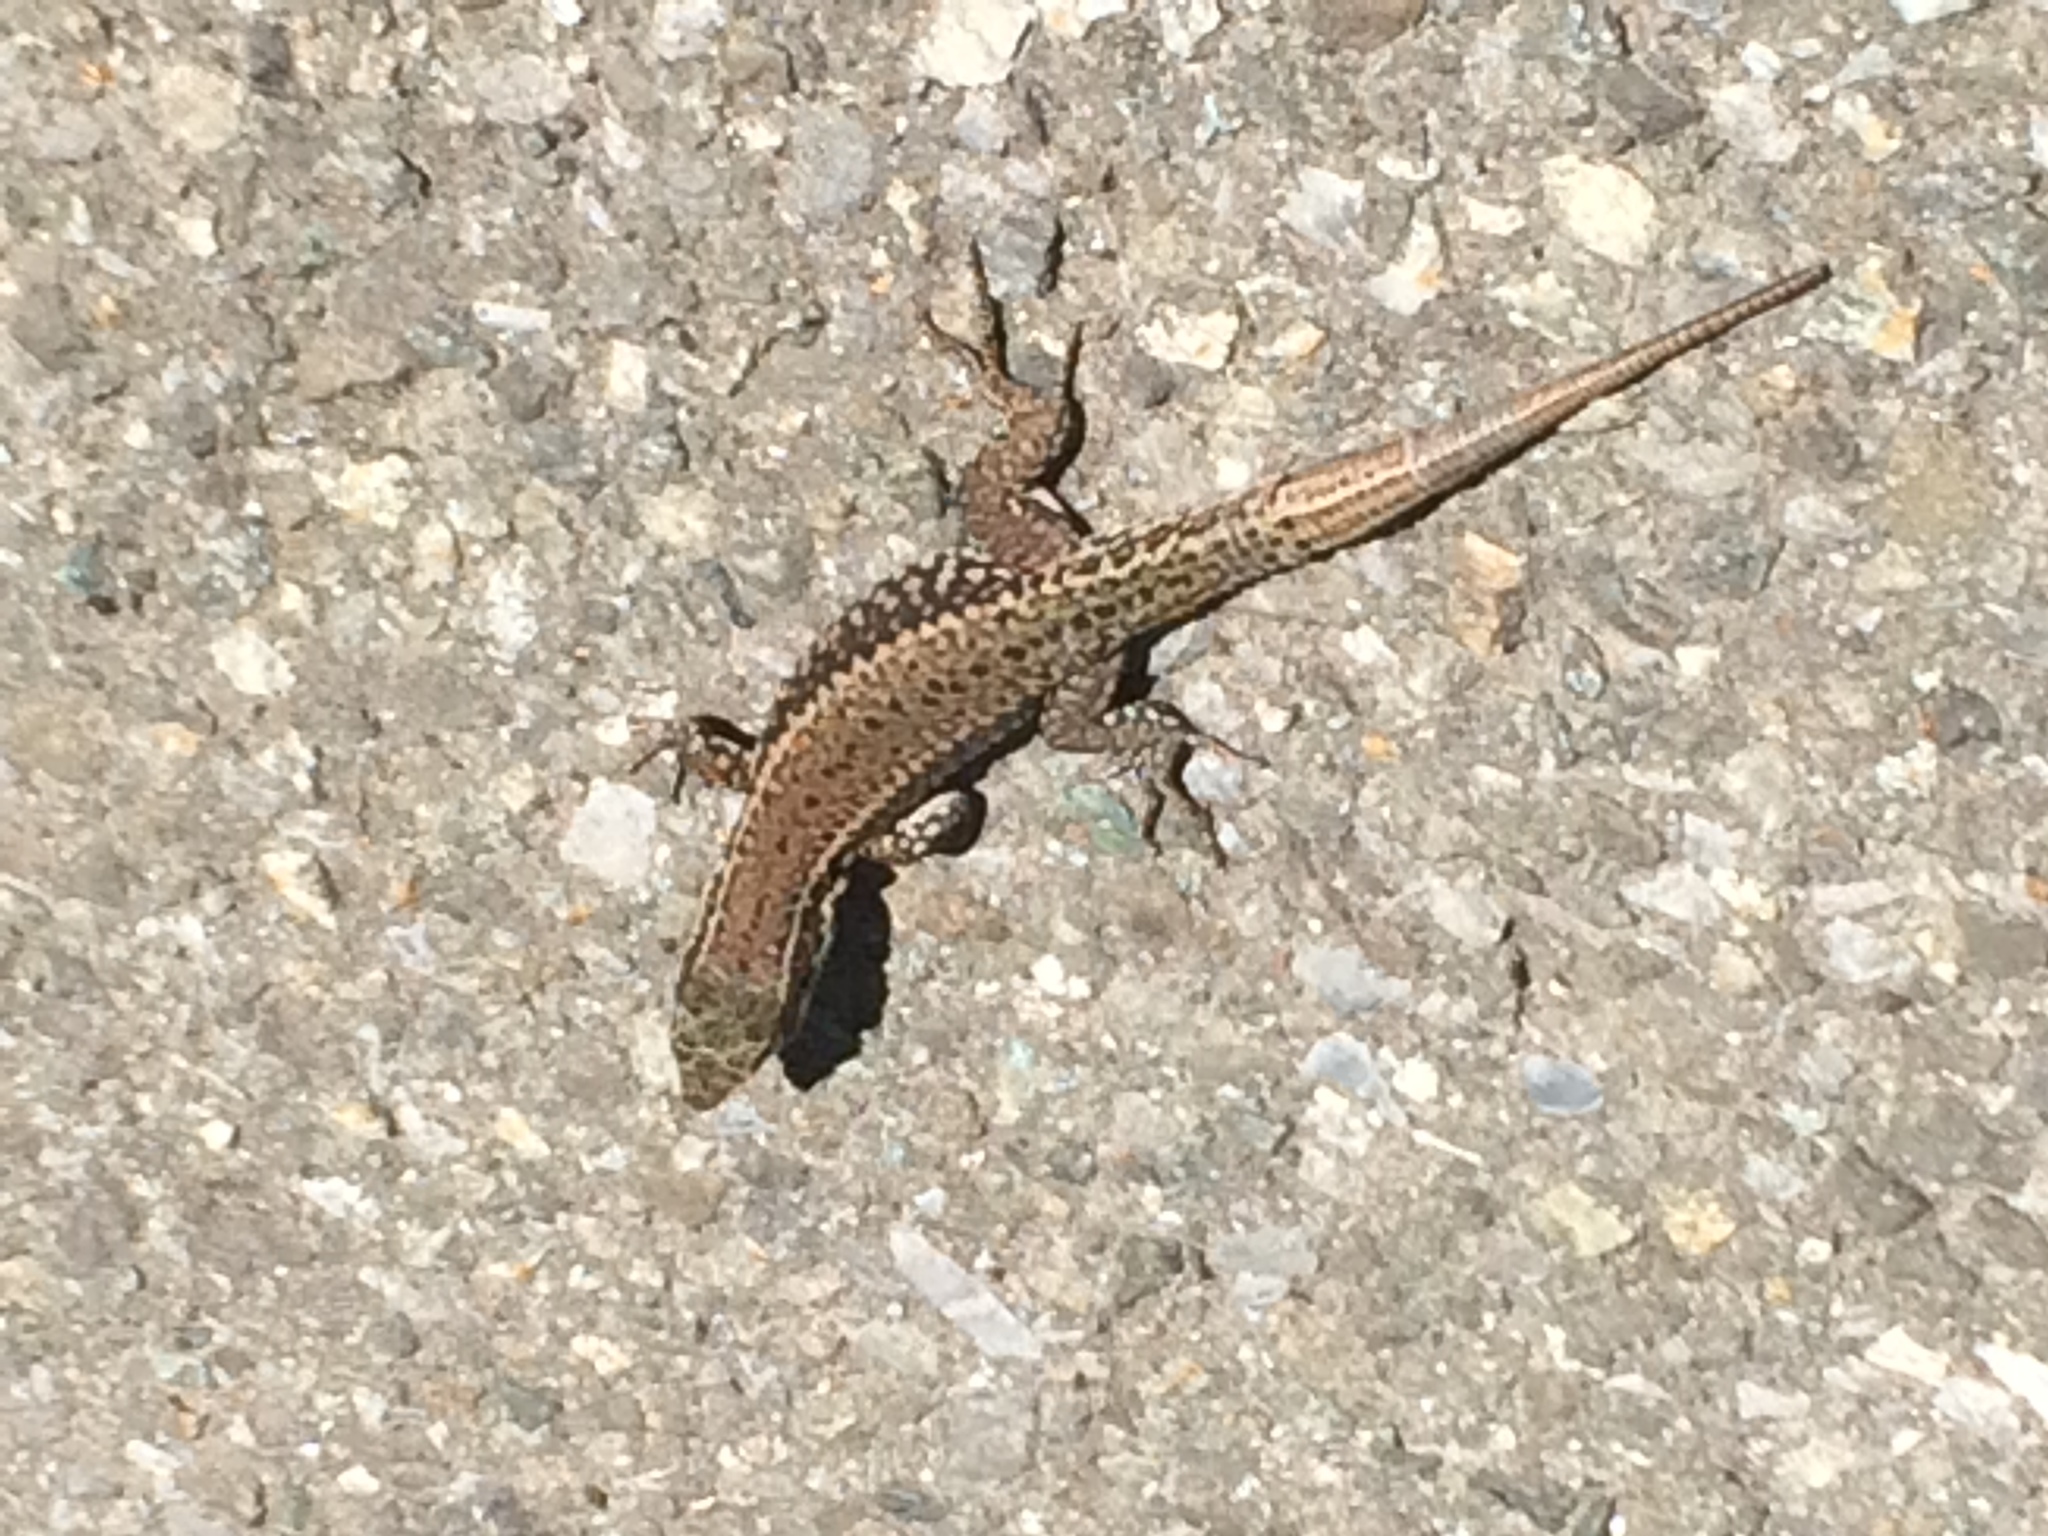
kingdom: Animalia
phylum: Chordata
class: Squamata
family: Lacertidae
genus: Podarcis
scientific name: Podarcis muralis
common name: Common wall lizard
